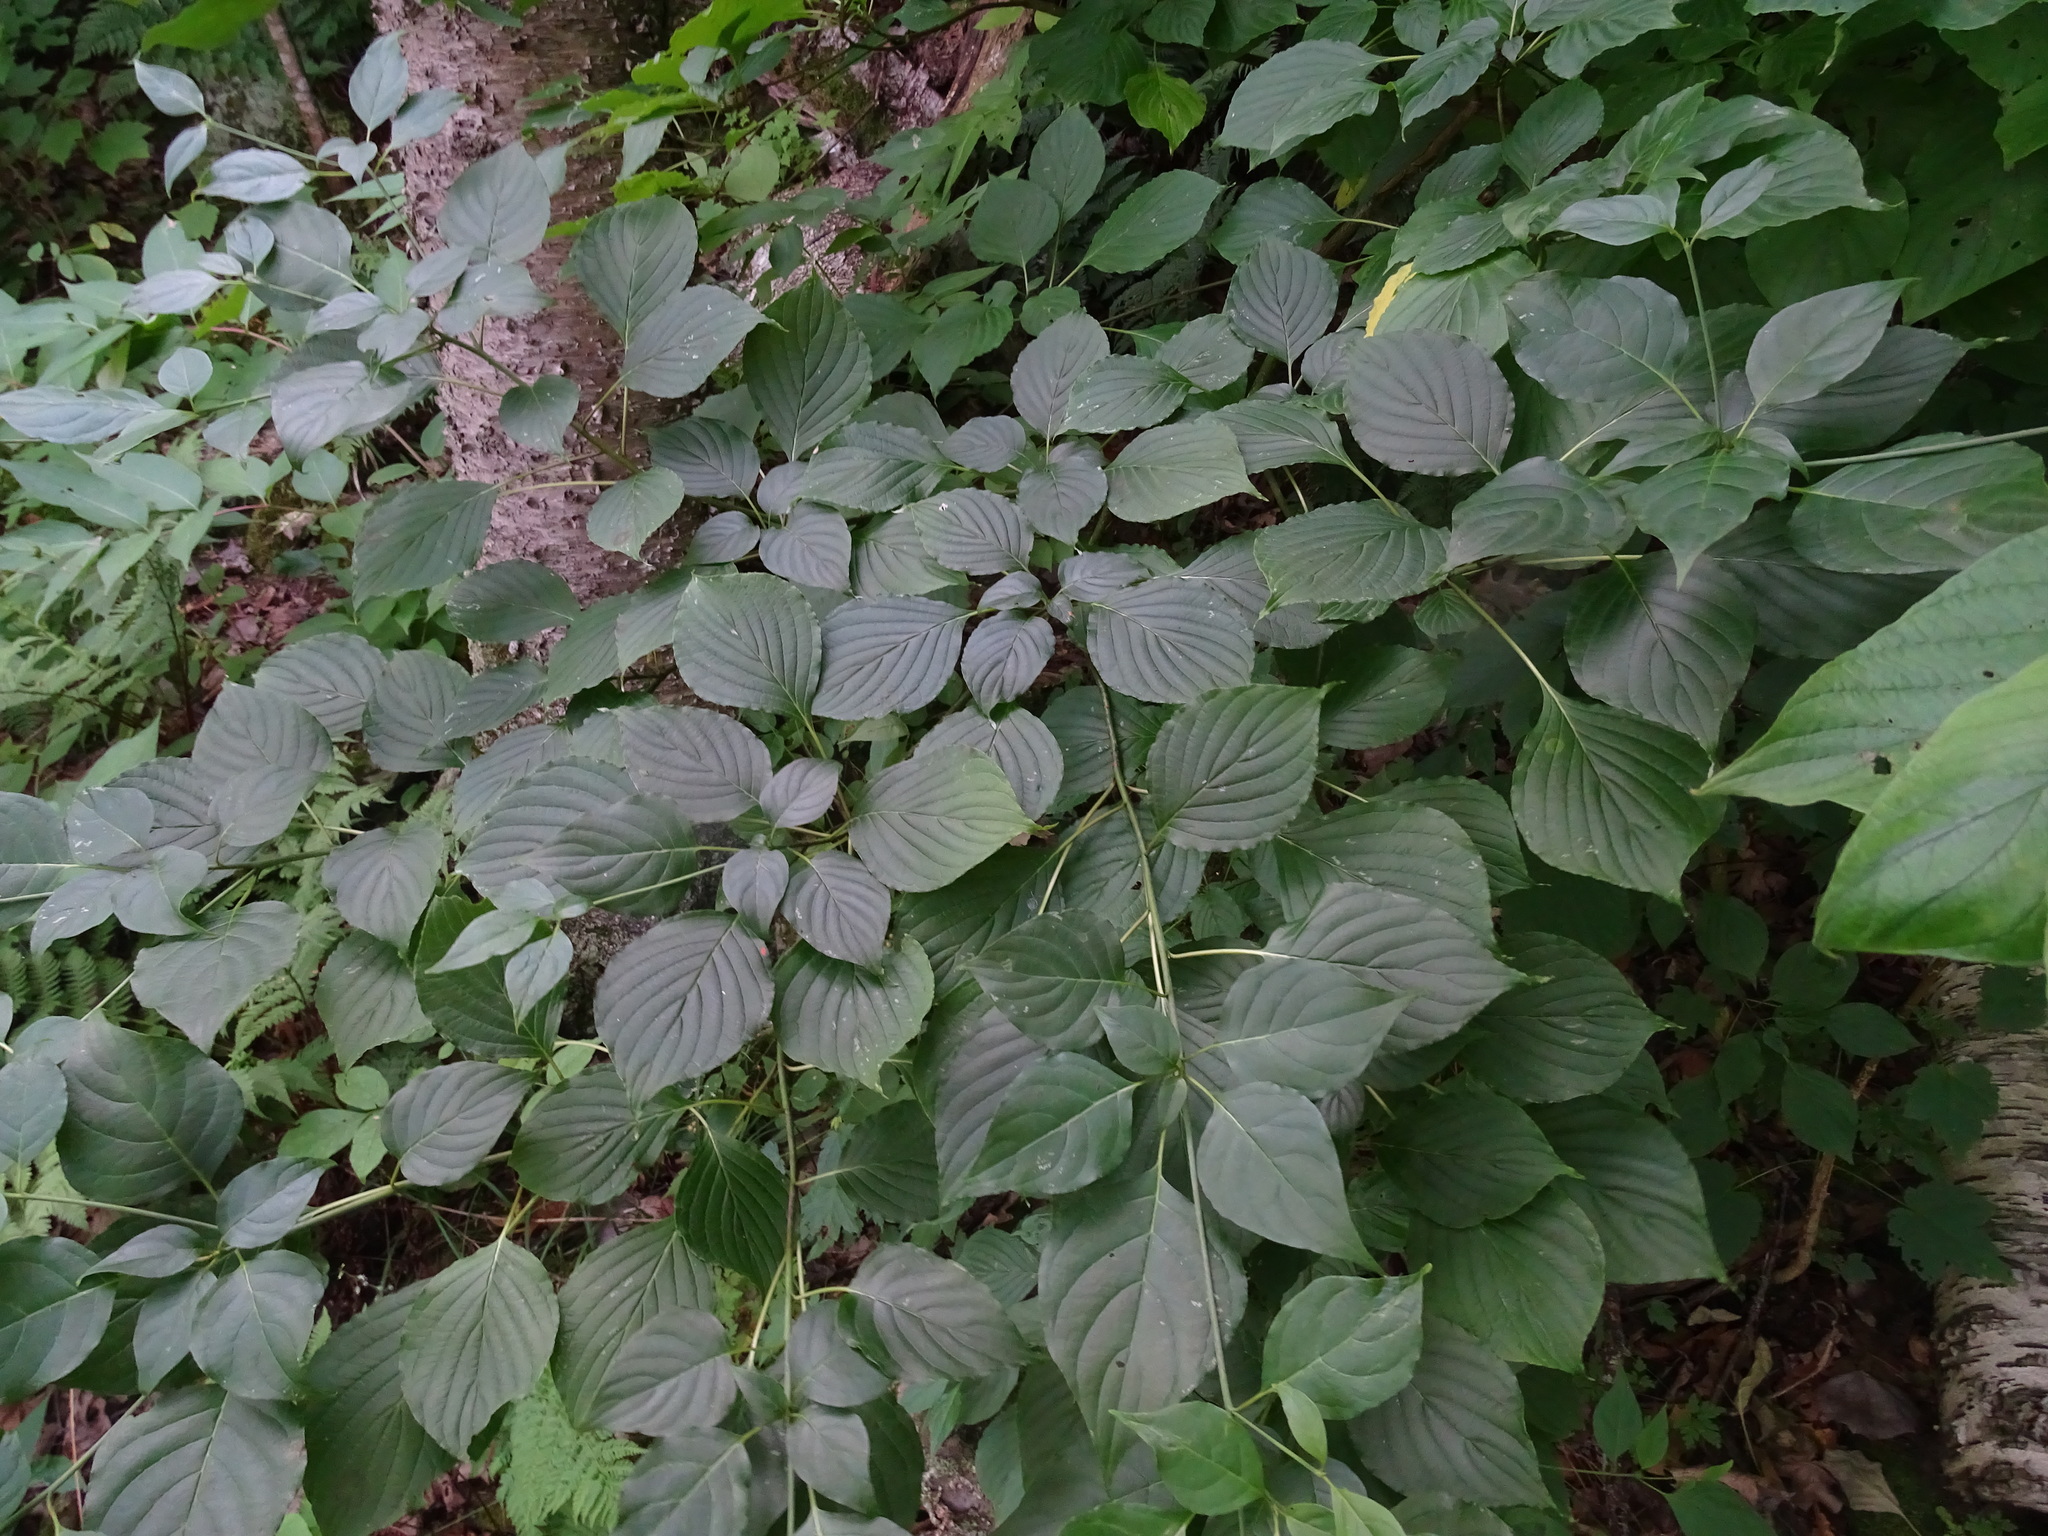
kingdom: Plantae
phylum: Tracheophyta
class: Magnoliopsida
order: Cornales
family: Cornaceae
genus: Cornus
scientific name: Cornus alternifolia
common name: Pagoda dogwood
